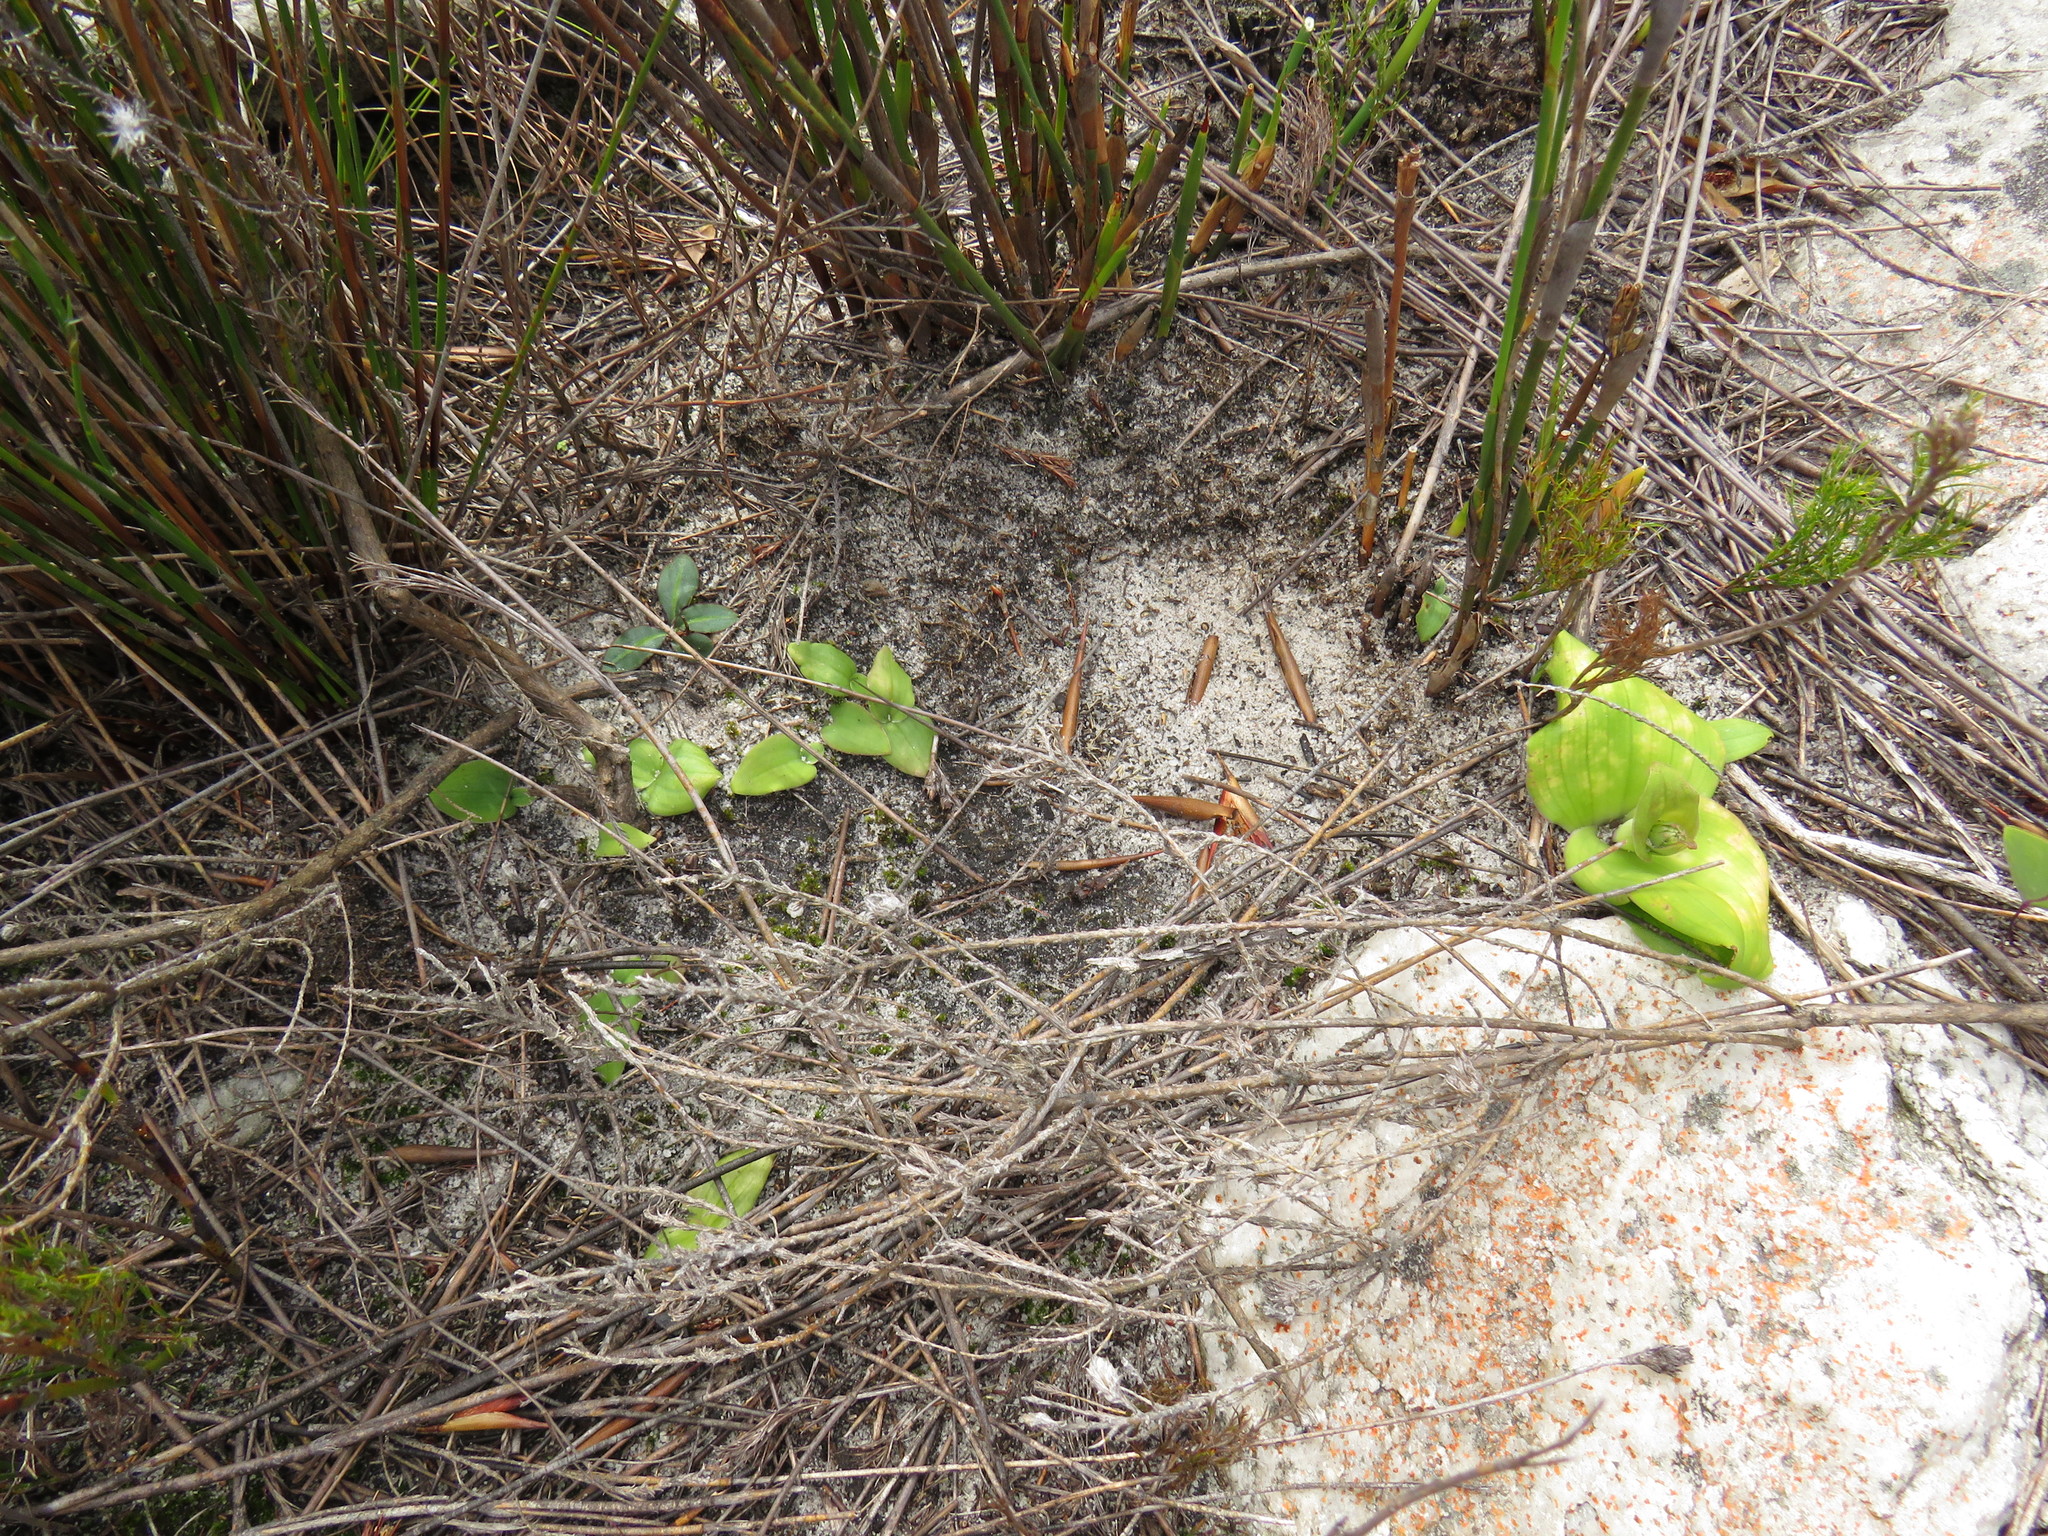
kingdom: Plantae
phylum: Tracheophyta
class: Liliopsida
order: Asparagales
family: Orchidaceae
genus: Disa
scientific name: Disa bifida
